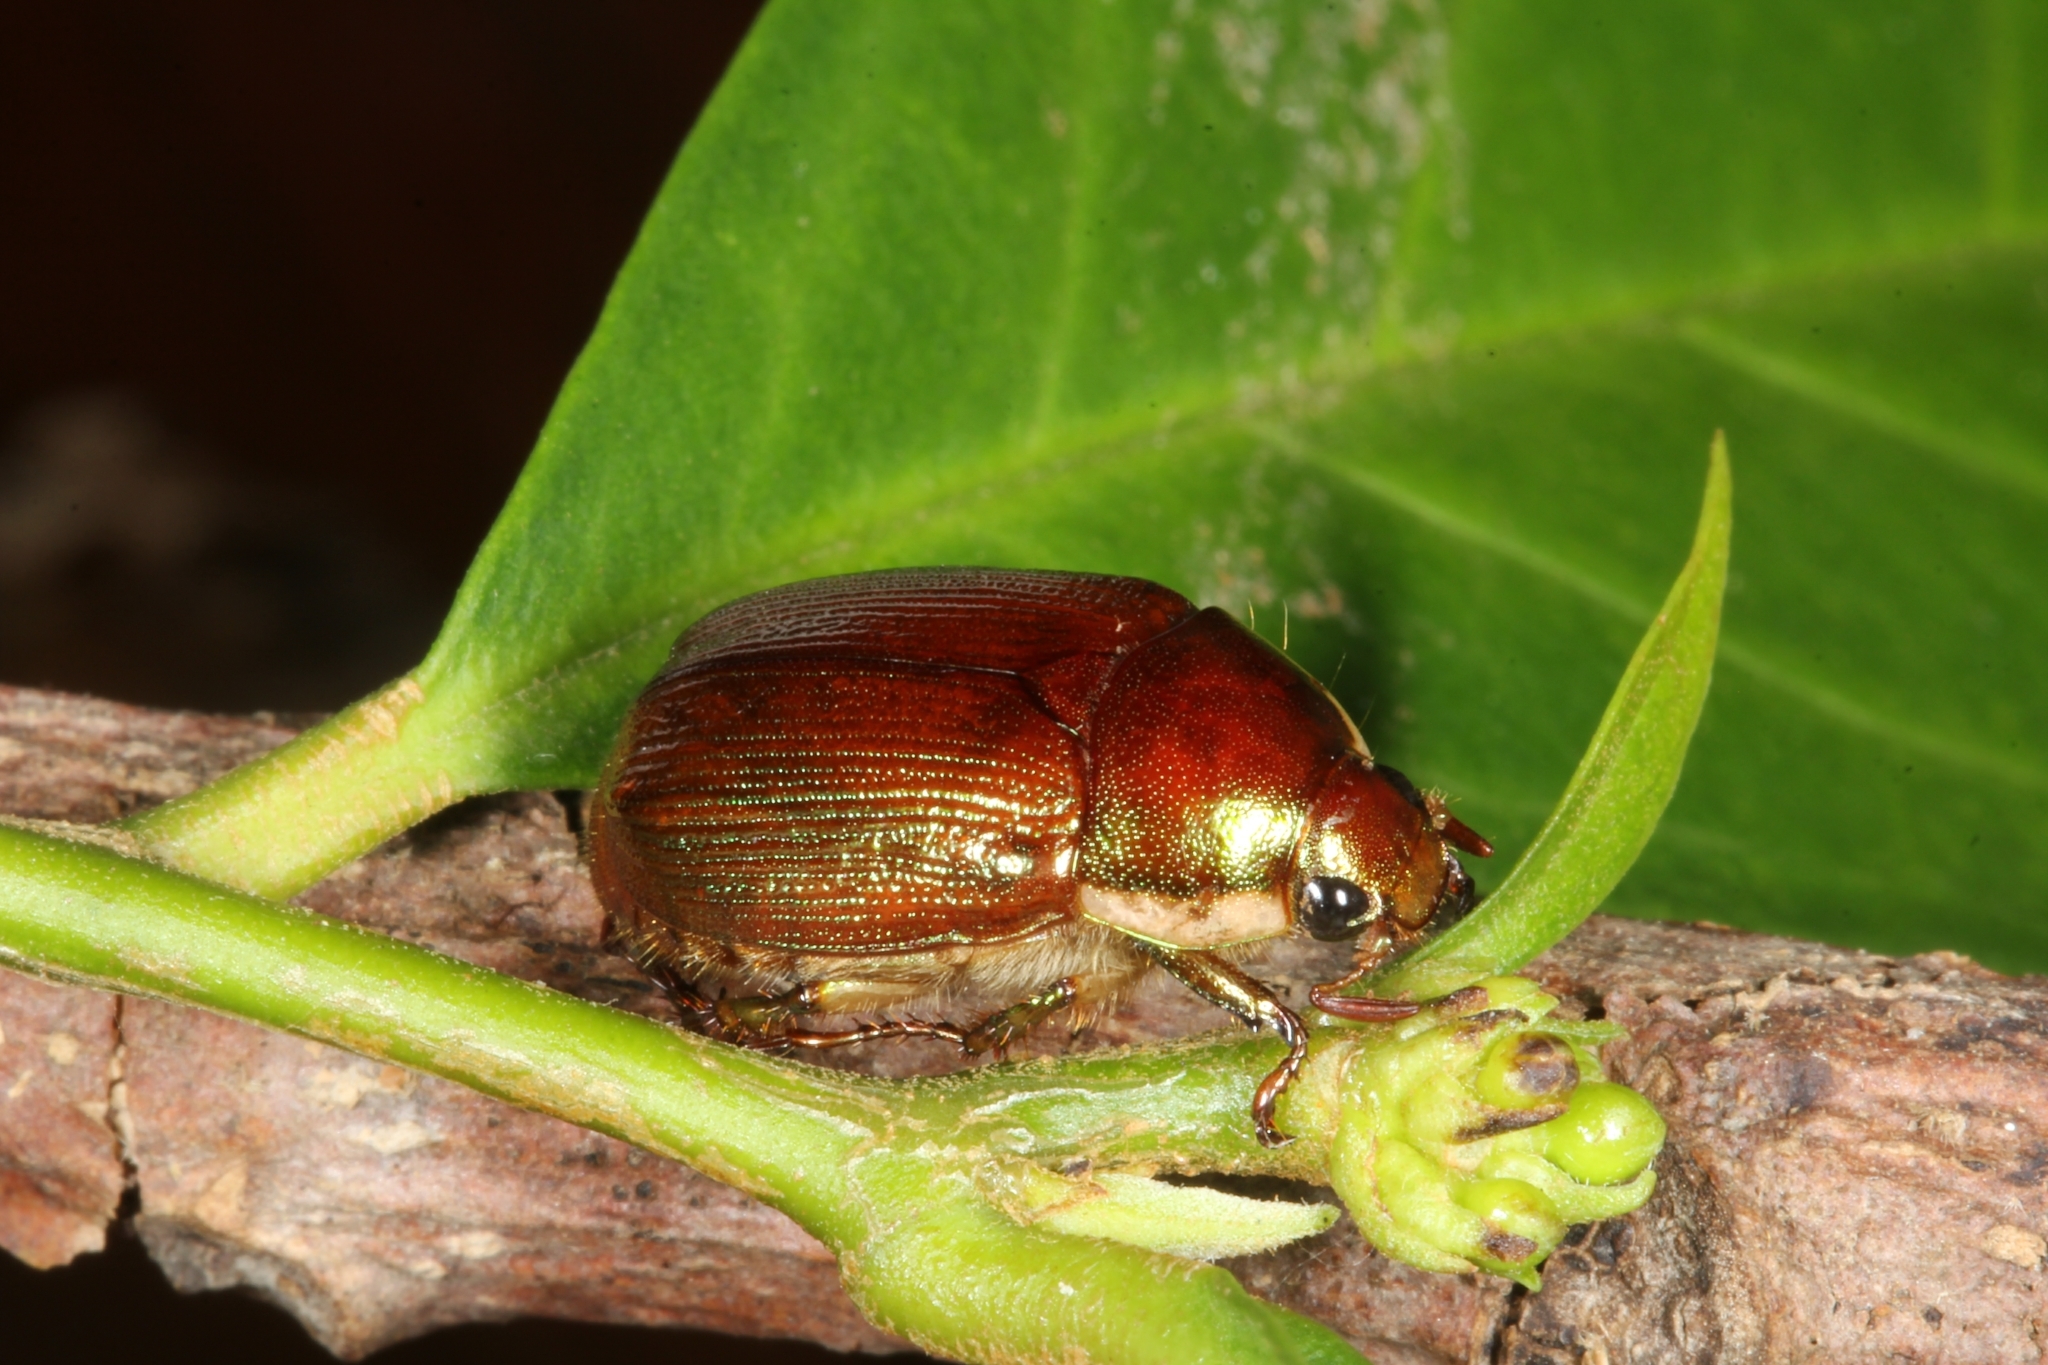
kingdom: Animalia
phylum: Arthropoda
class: Insecta
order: Coleoptera
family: Scarabaeidae
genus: Callistethus
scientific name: Callistethus
